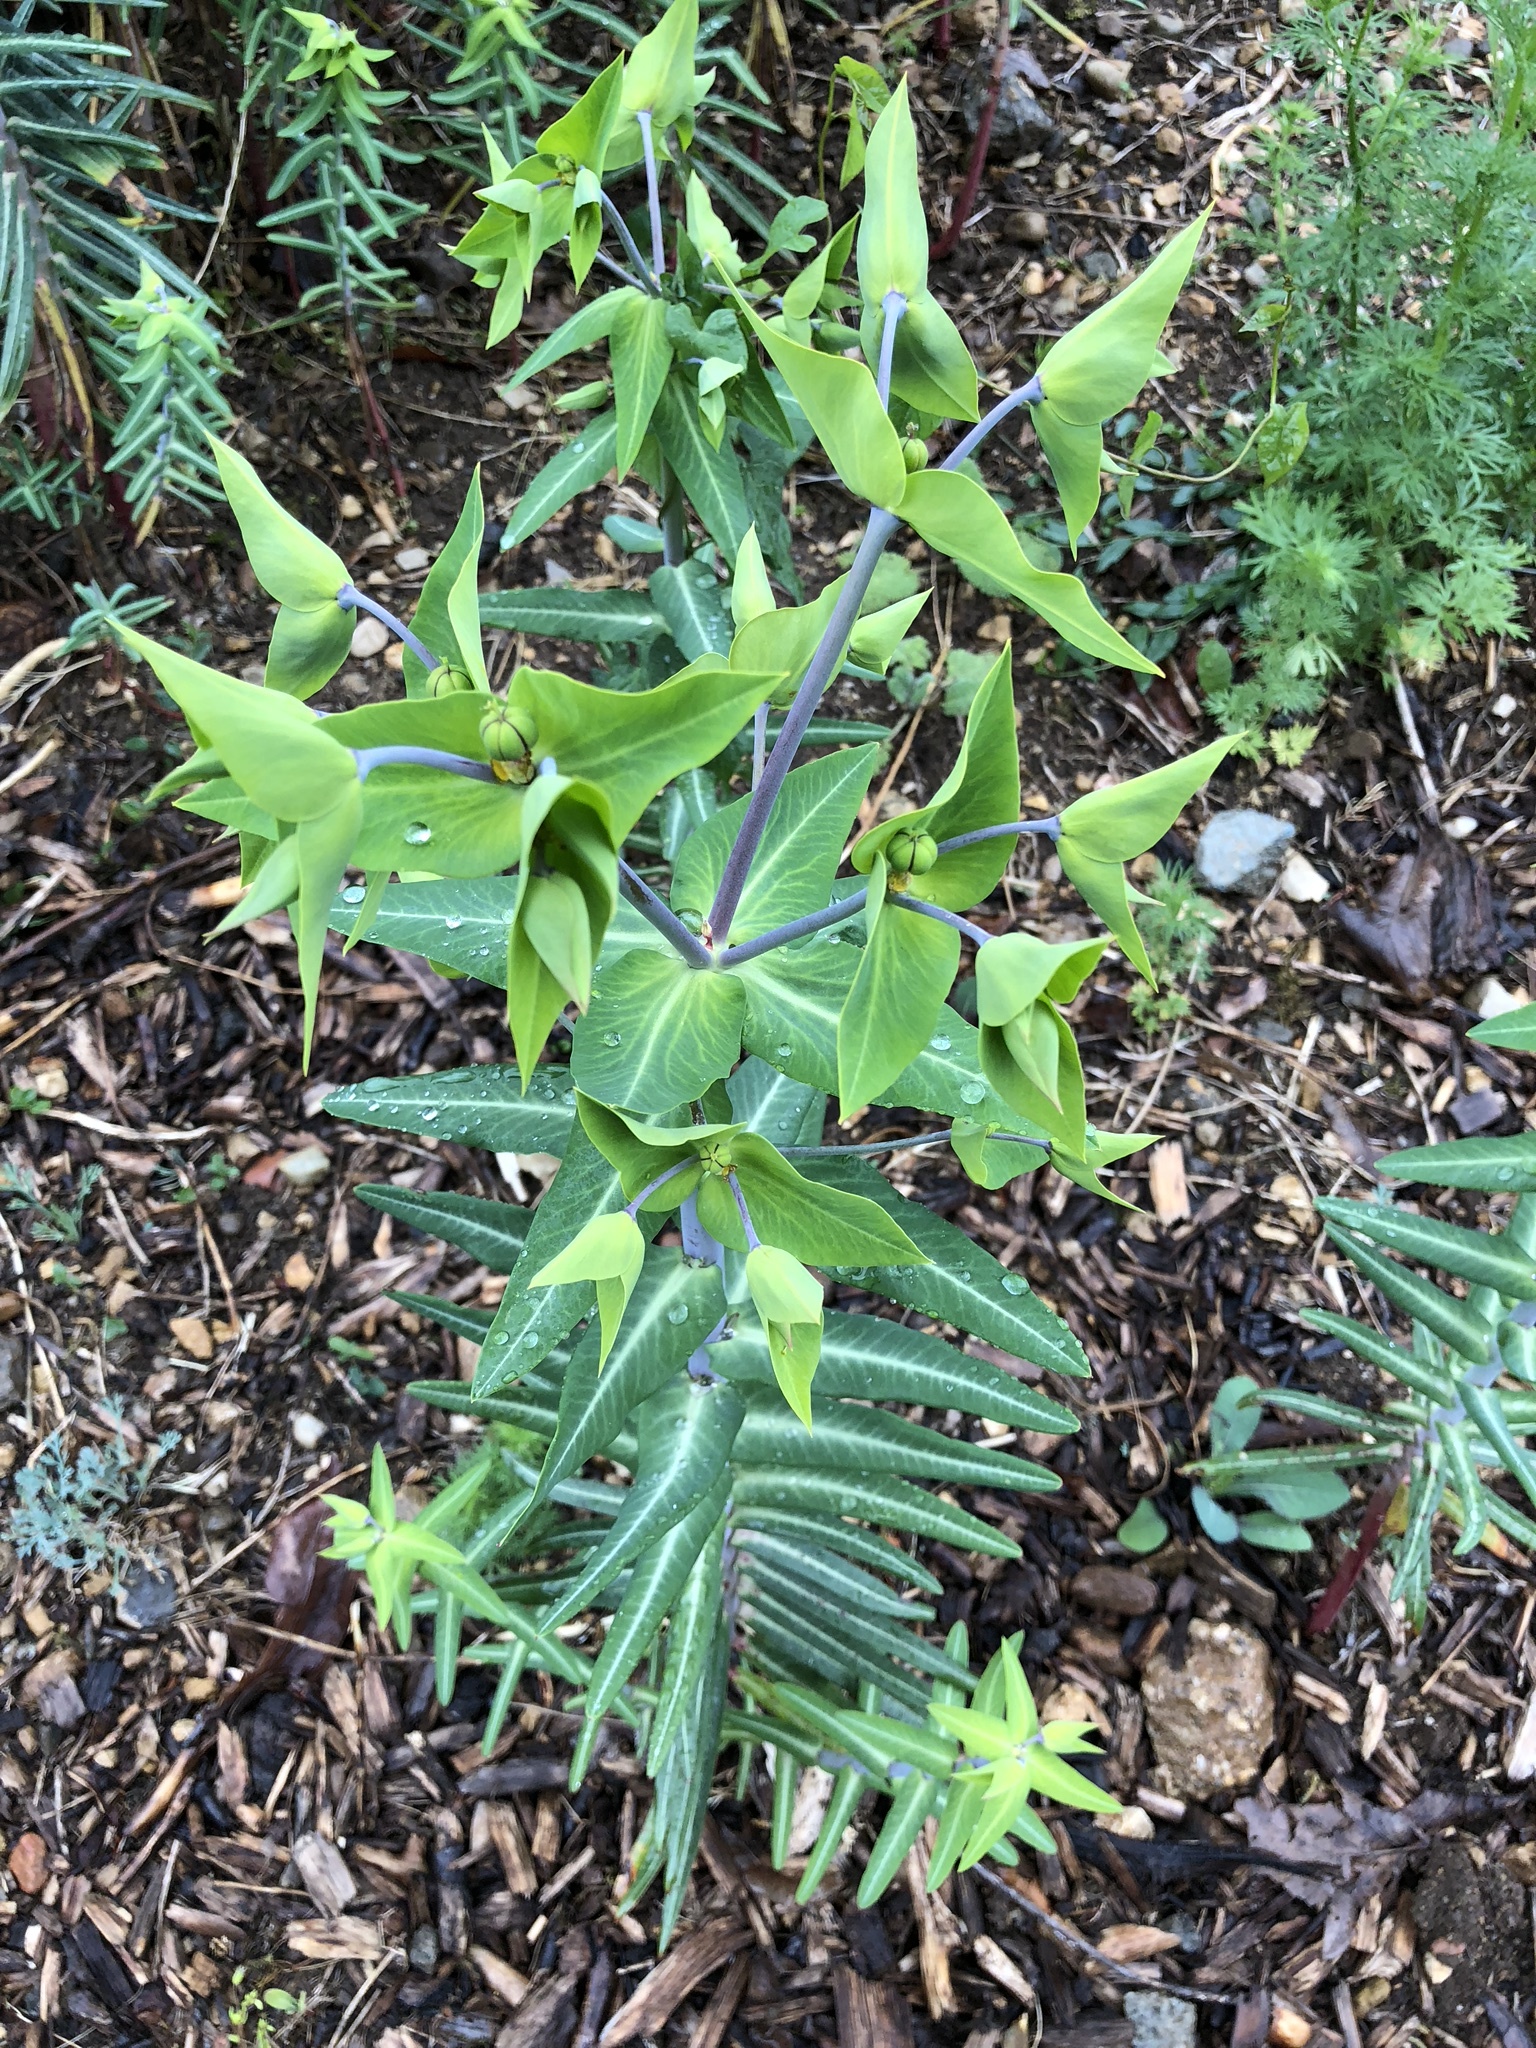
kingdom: Plantae
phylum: Tracheophyta
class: Magnoliopsida
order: Malpighiales
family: Euphorbiaceae
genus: Euphorbia
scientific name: Euphorbia lathyris
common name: Caper spurge
